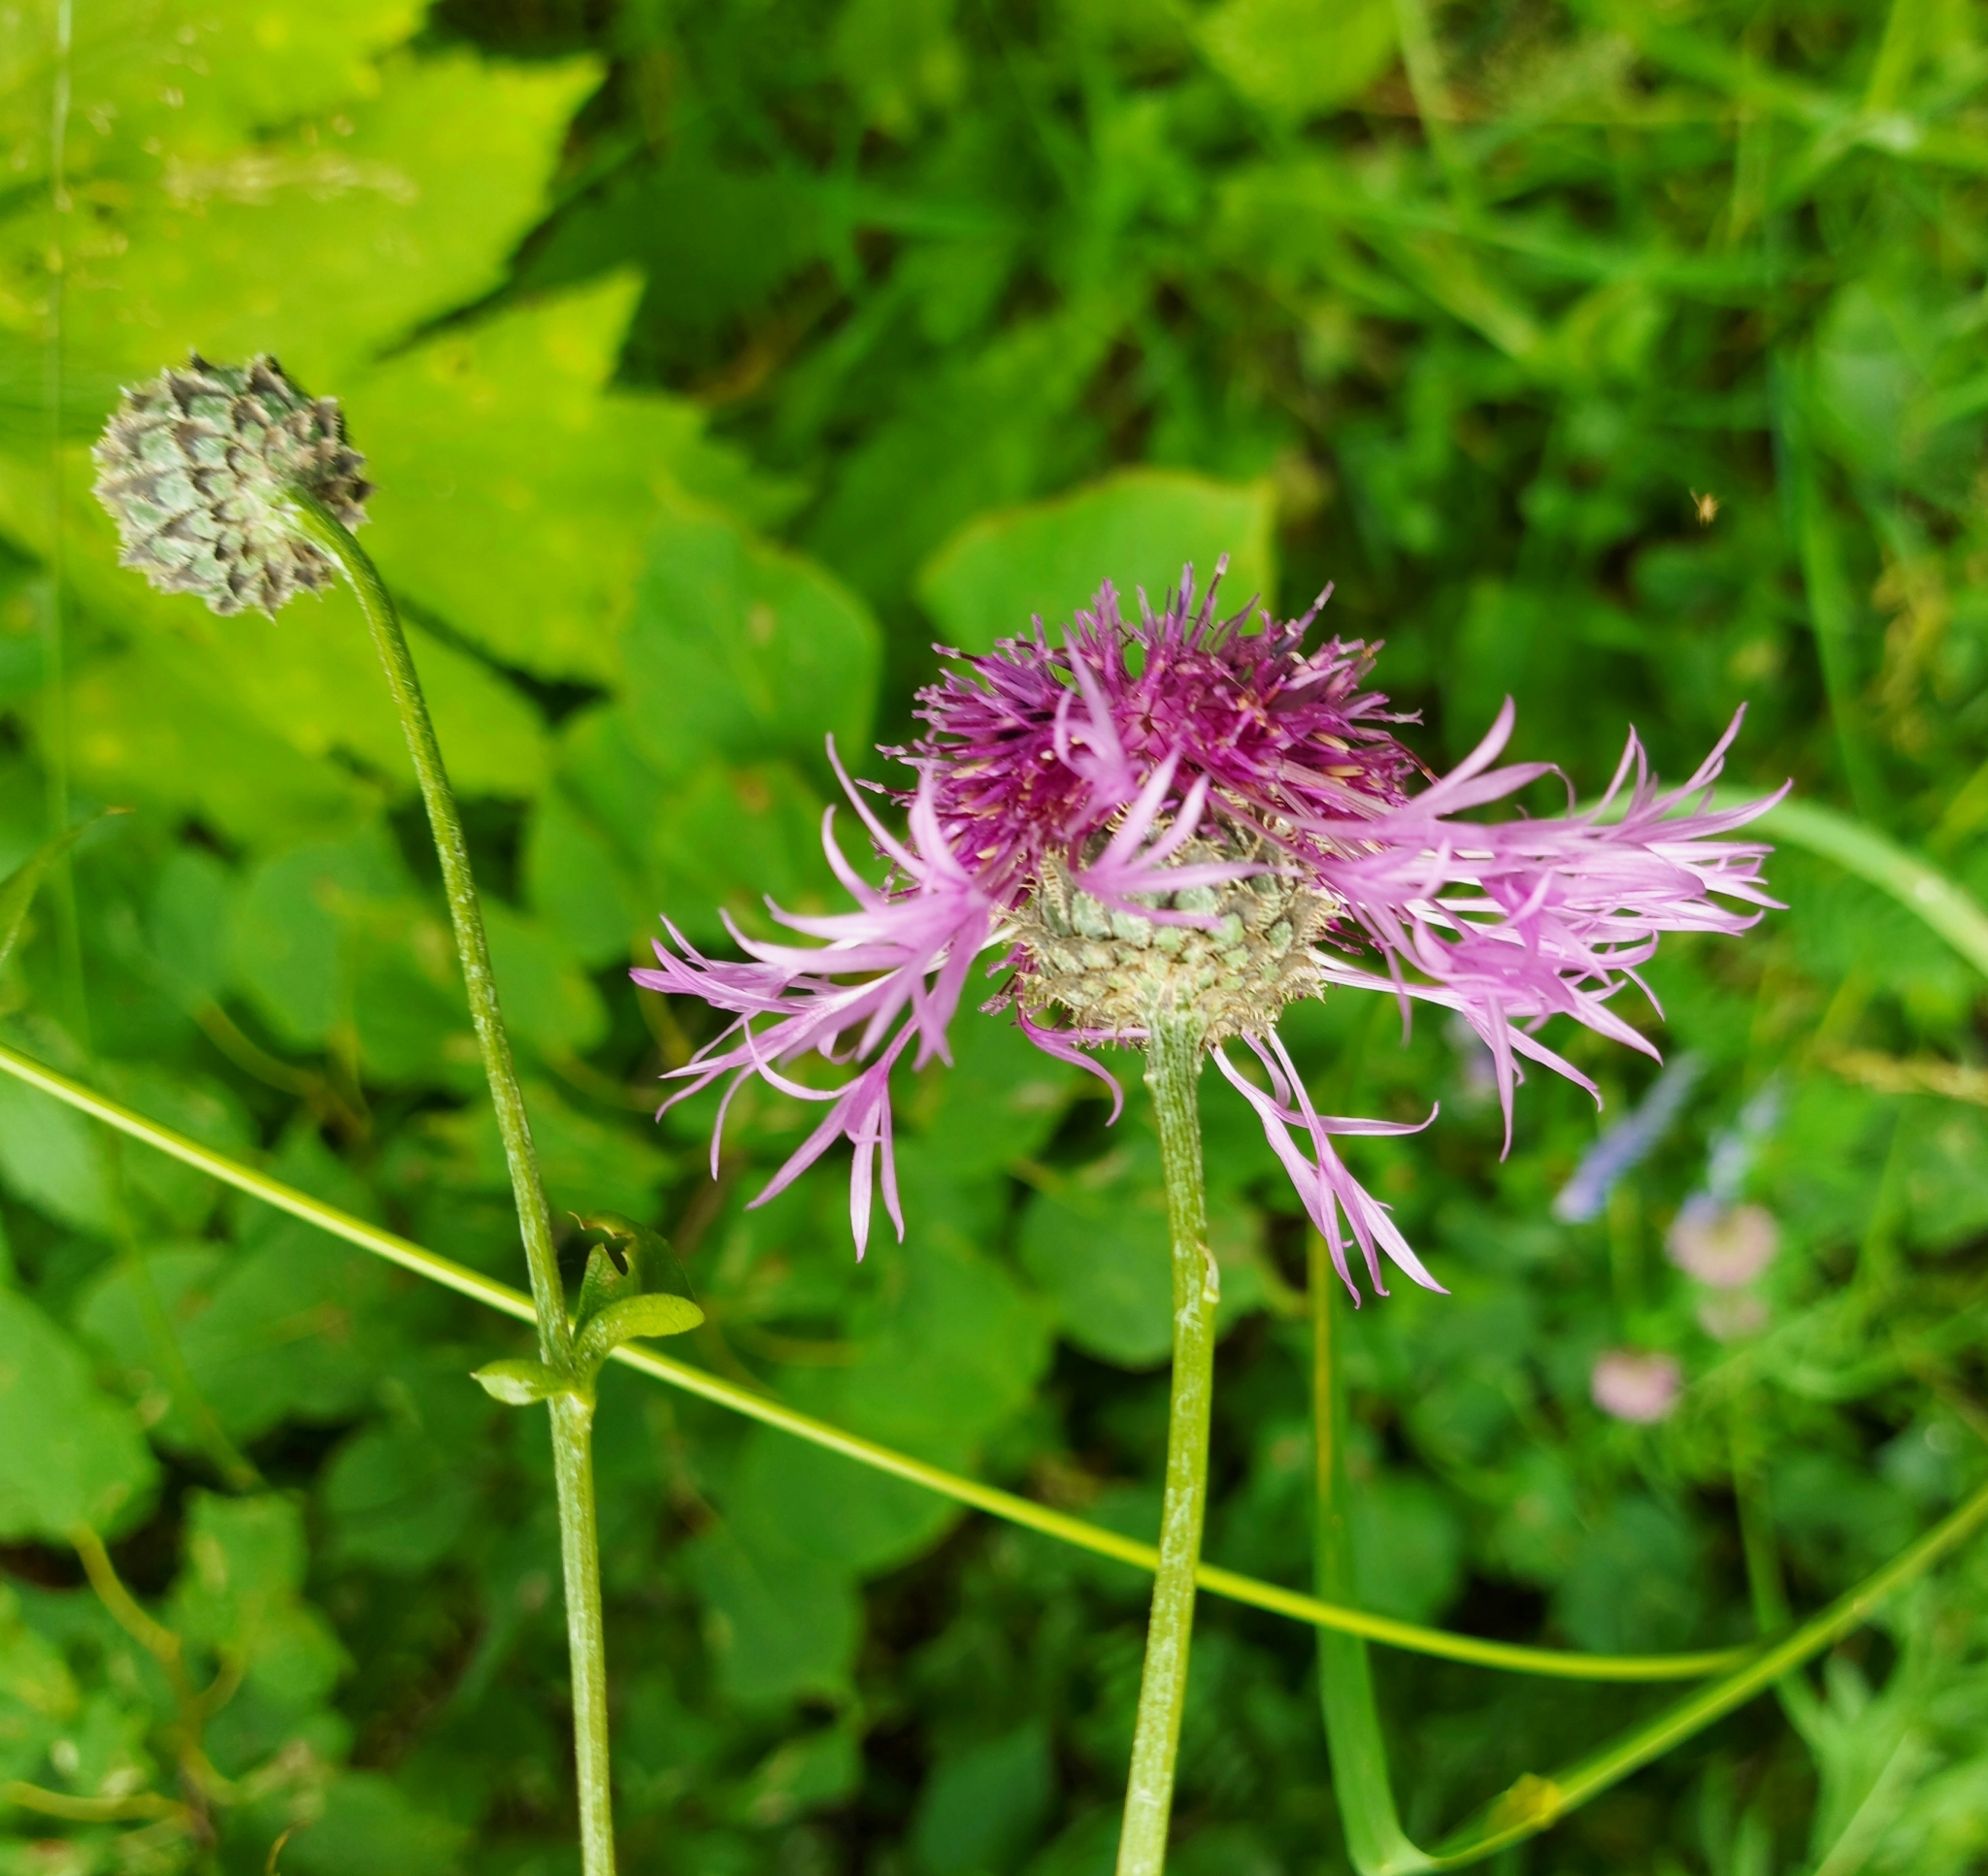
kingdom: Plantae
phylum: Tracheophyta
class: Magnoliopsida
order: Asterales
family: Asteraceae
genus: Centaurea
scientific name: Centaurea scabiosa
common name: Greater knapweed
